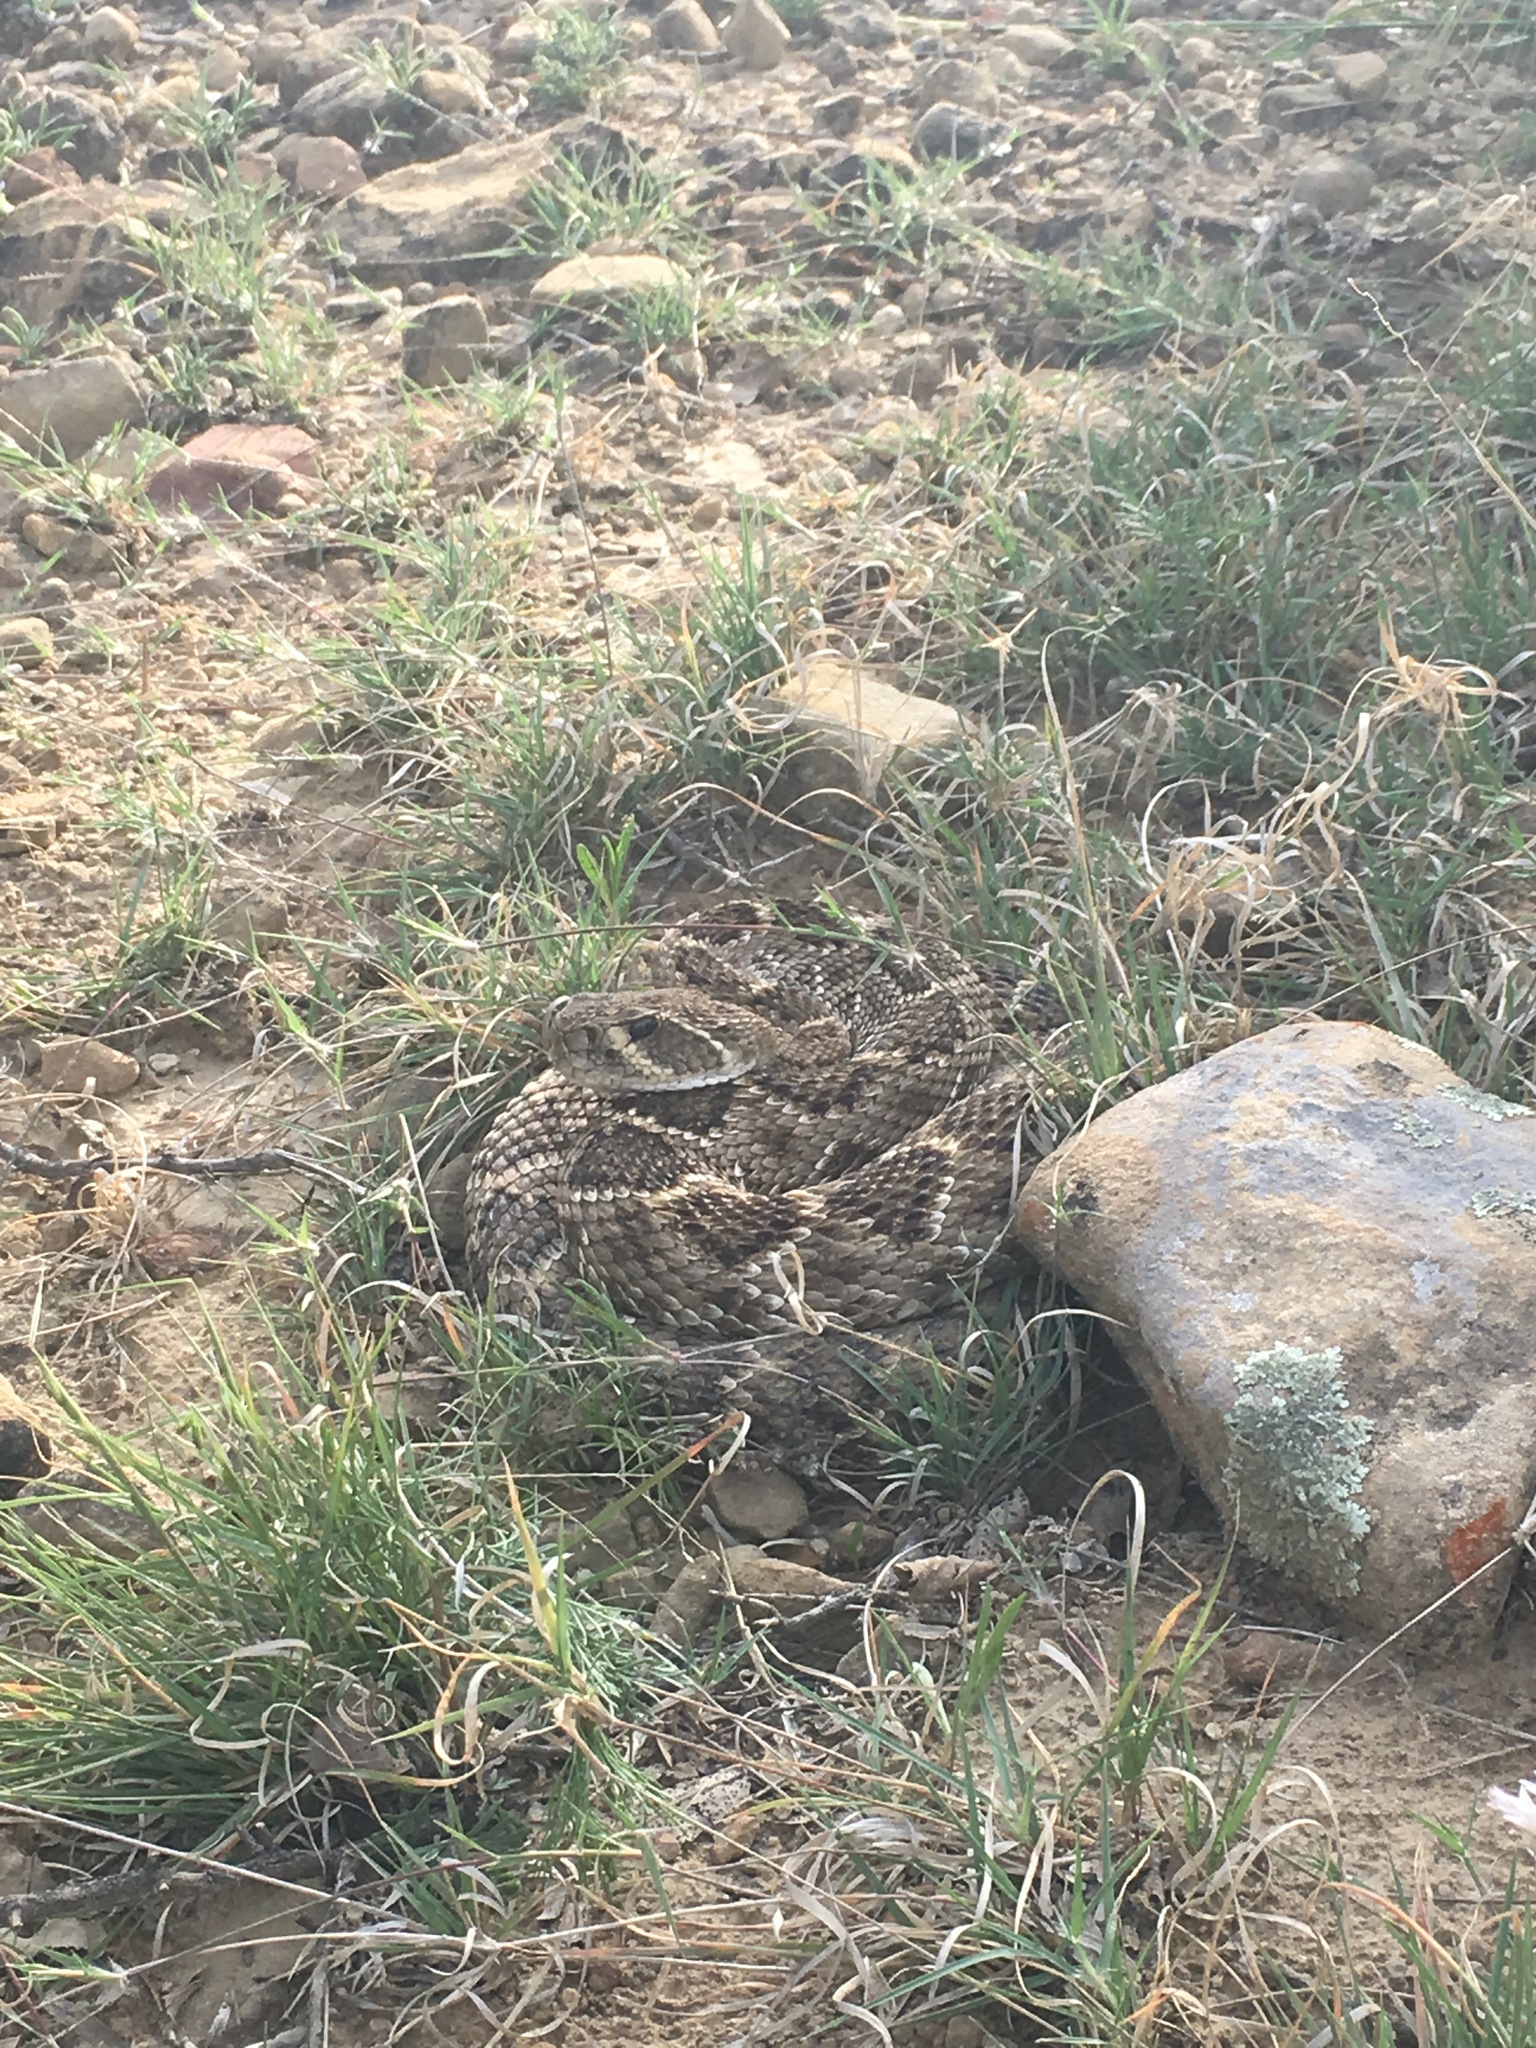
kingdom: Animalia
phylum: Chordata
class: Squamata
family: Viperidae
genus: Crotalus
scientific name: Crotalus atrox
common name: Western diamond-backed rattlesnake
